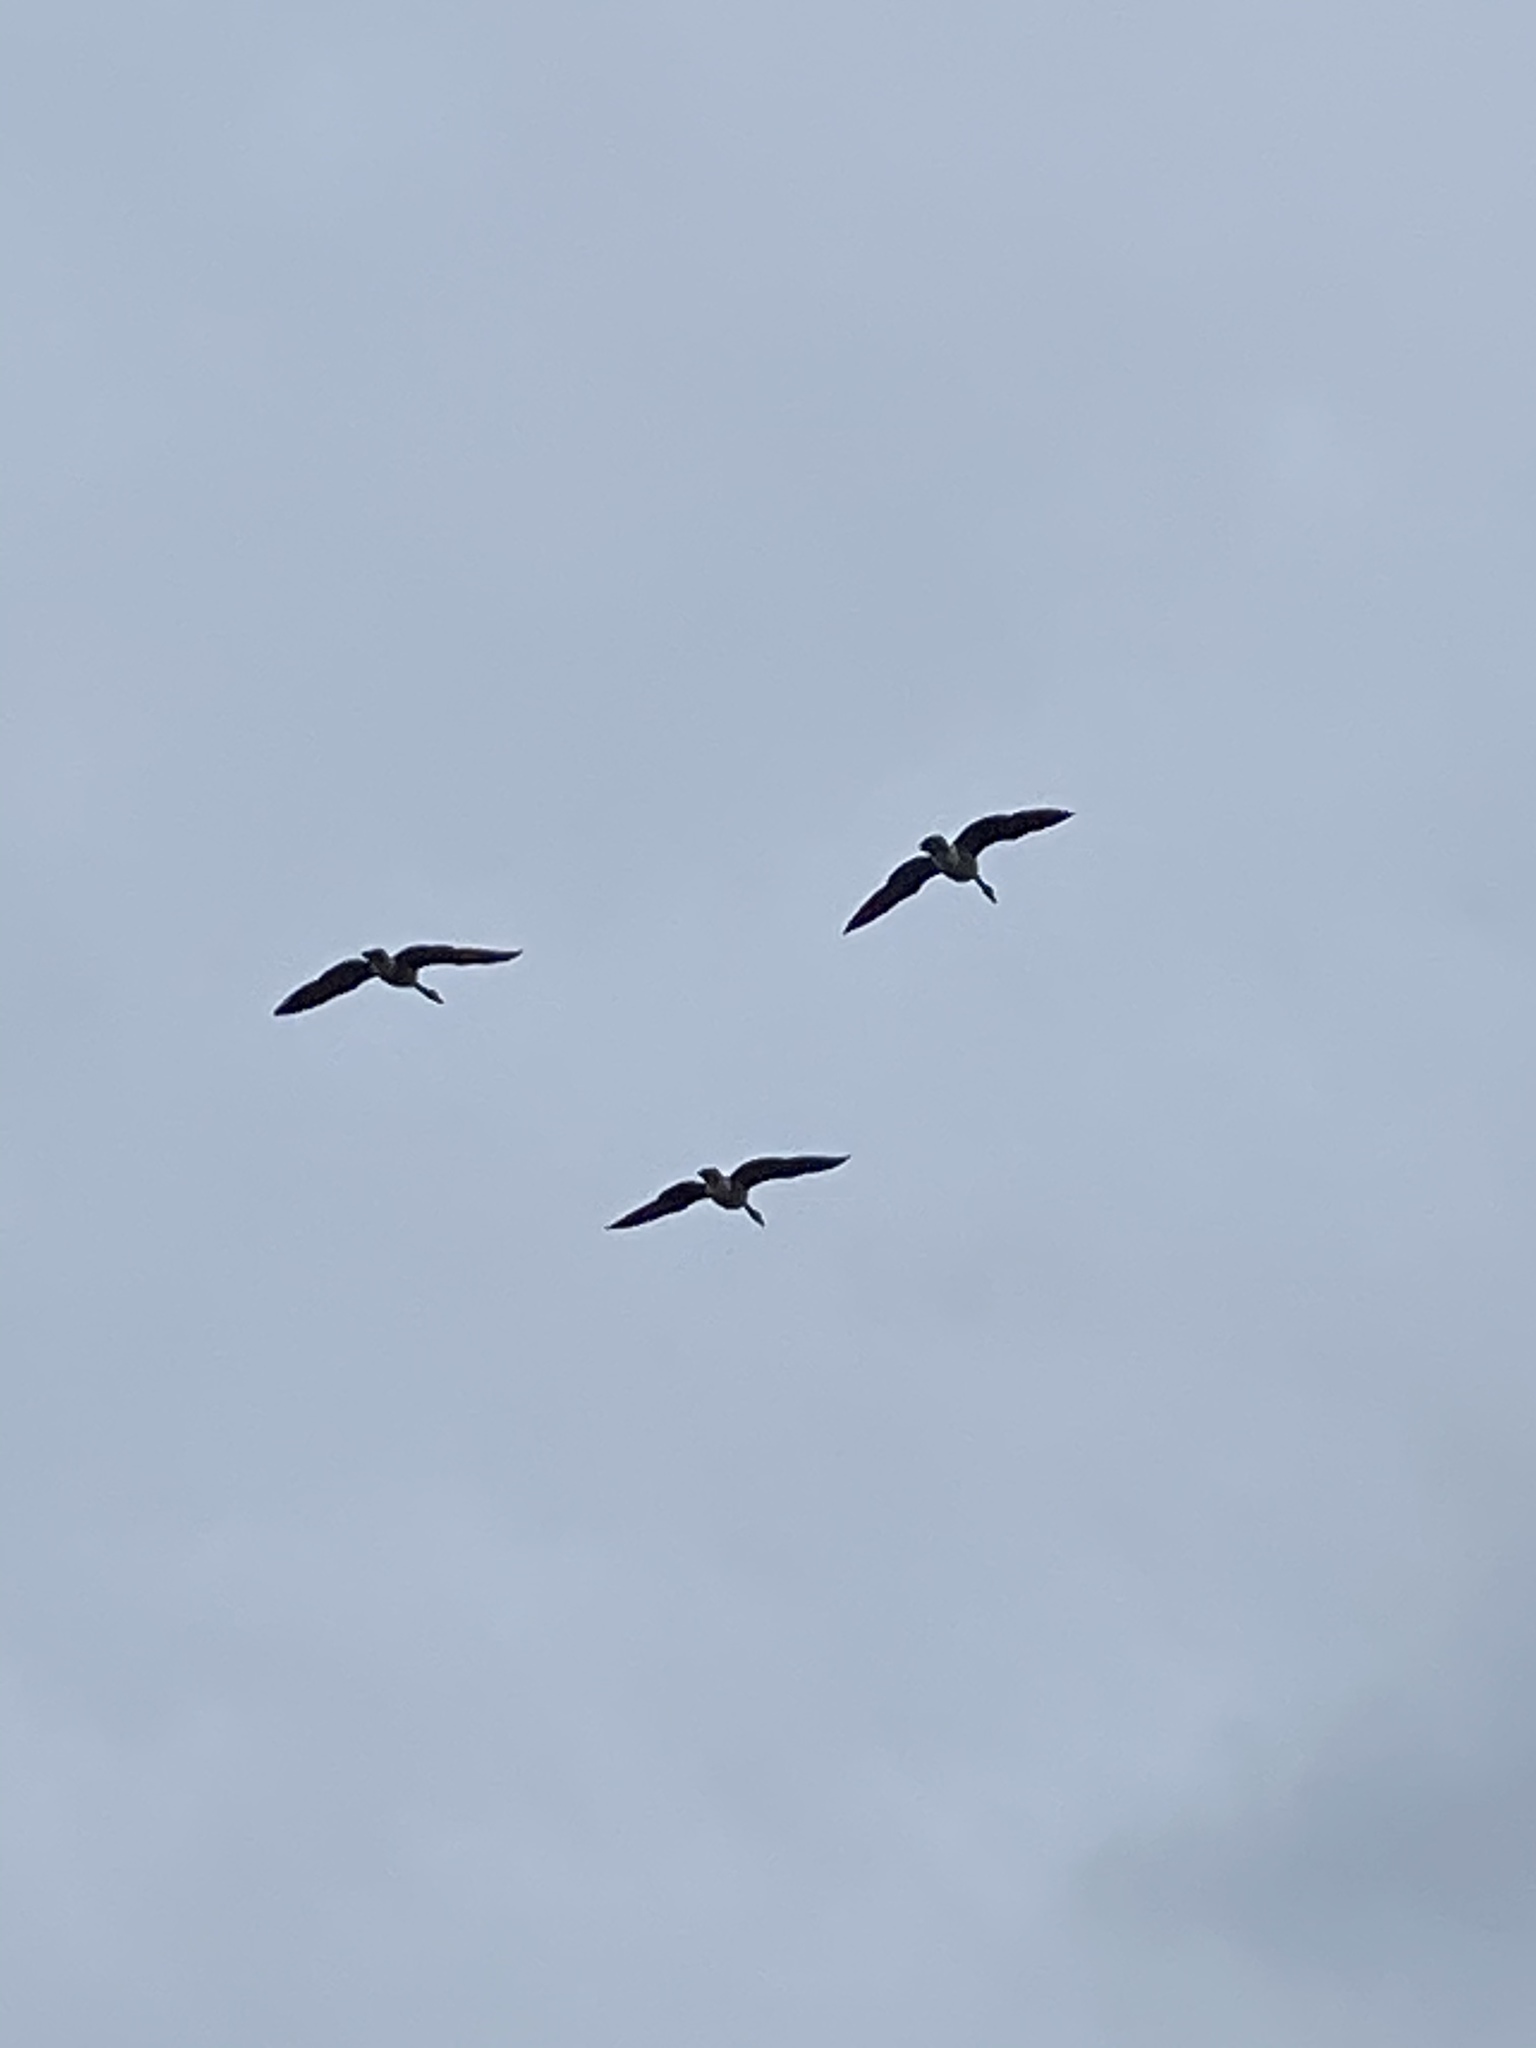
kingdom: Animalia
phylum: Chordata
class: Aves
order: Anseriformes
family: Anatidae
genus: Branta
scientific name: Branta canadensis
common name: Canada goose
